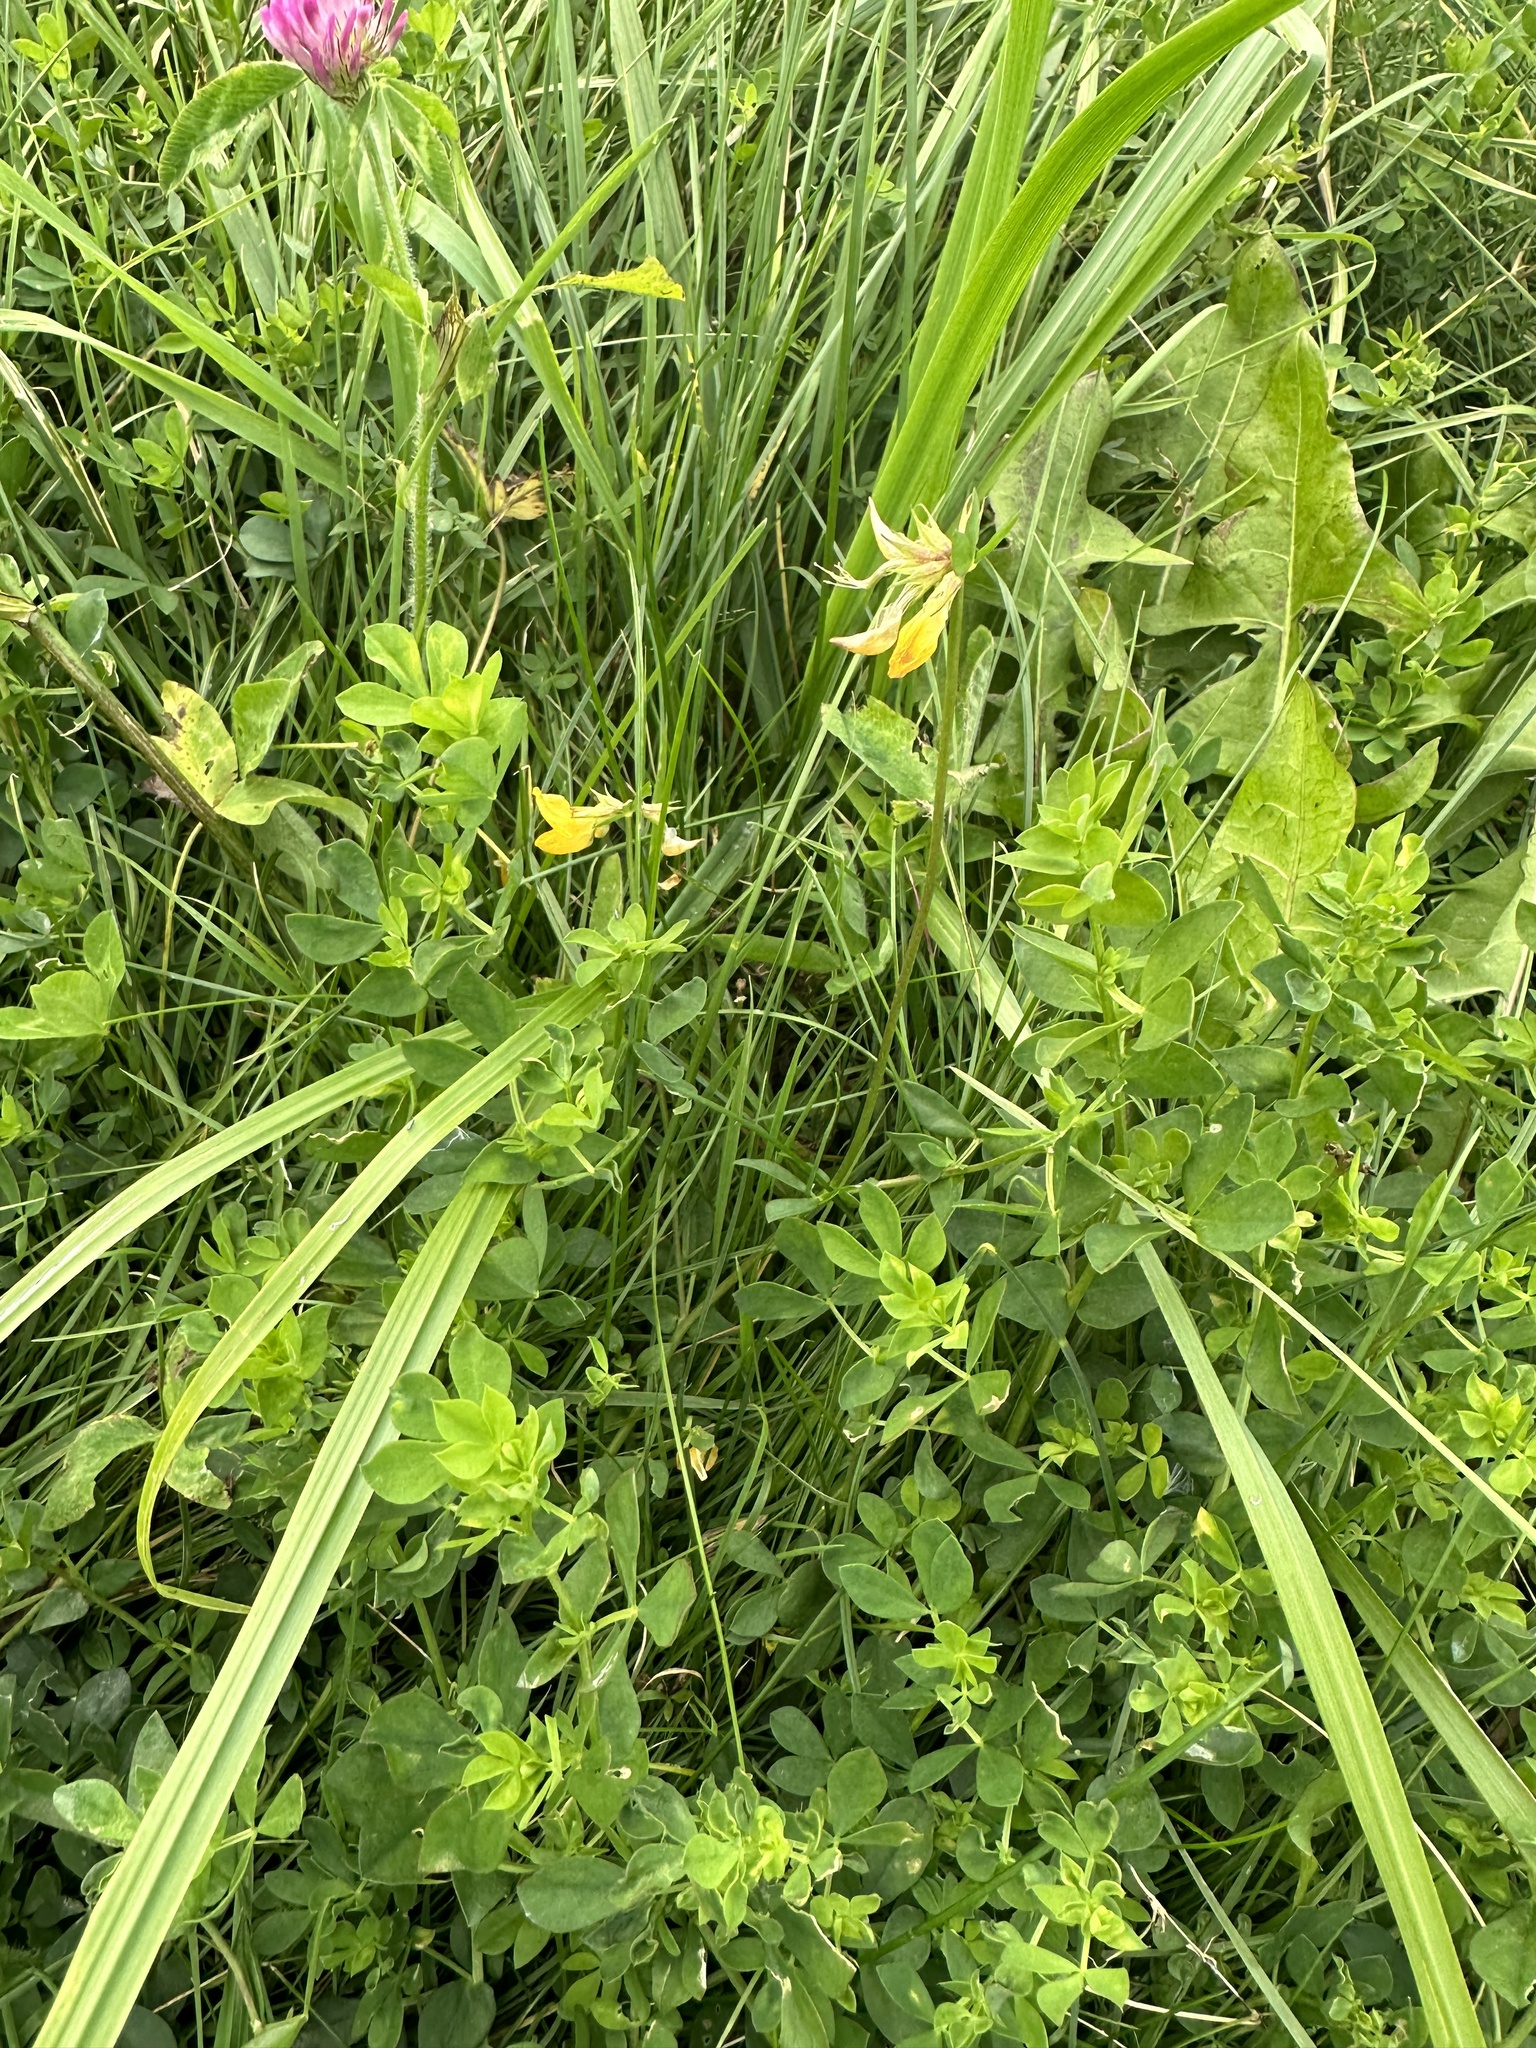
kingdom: Plantae
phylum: Tracheophyta
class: Magnoliopsida
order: Fabales
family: Fabaceae
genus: Lotus
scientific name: Lotus corniculatus
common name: Common bird's-foot-trefoil
